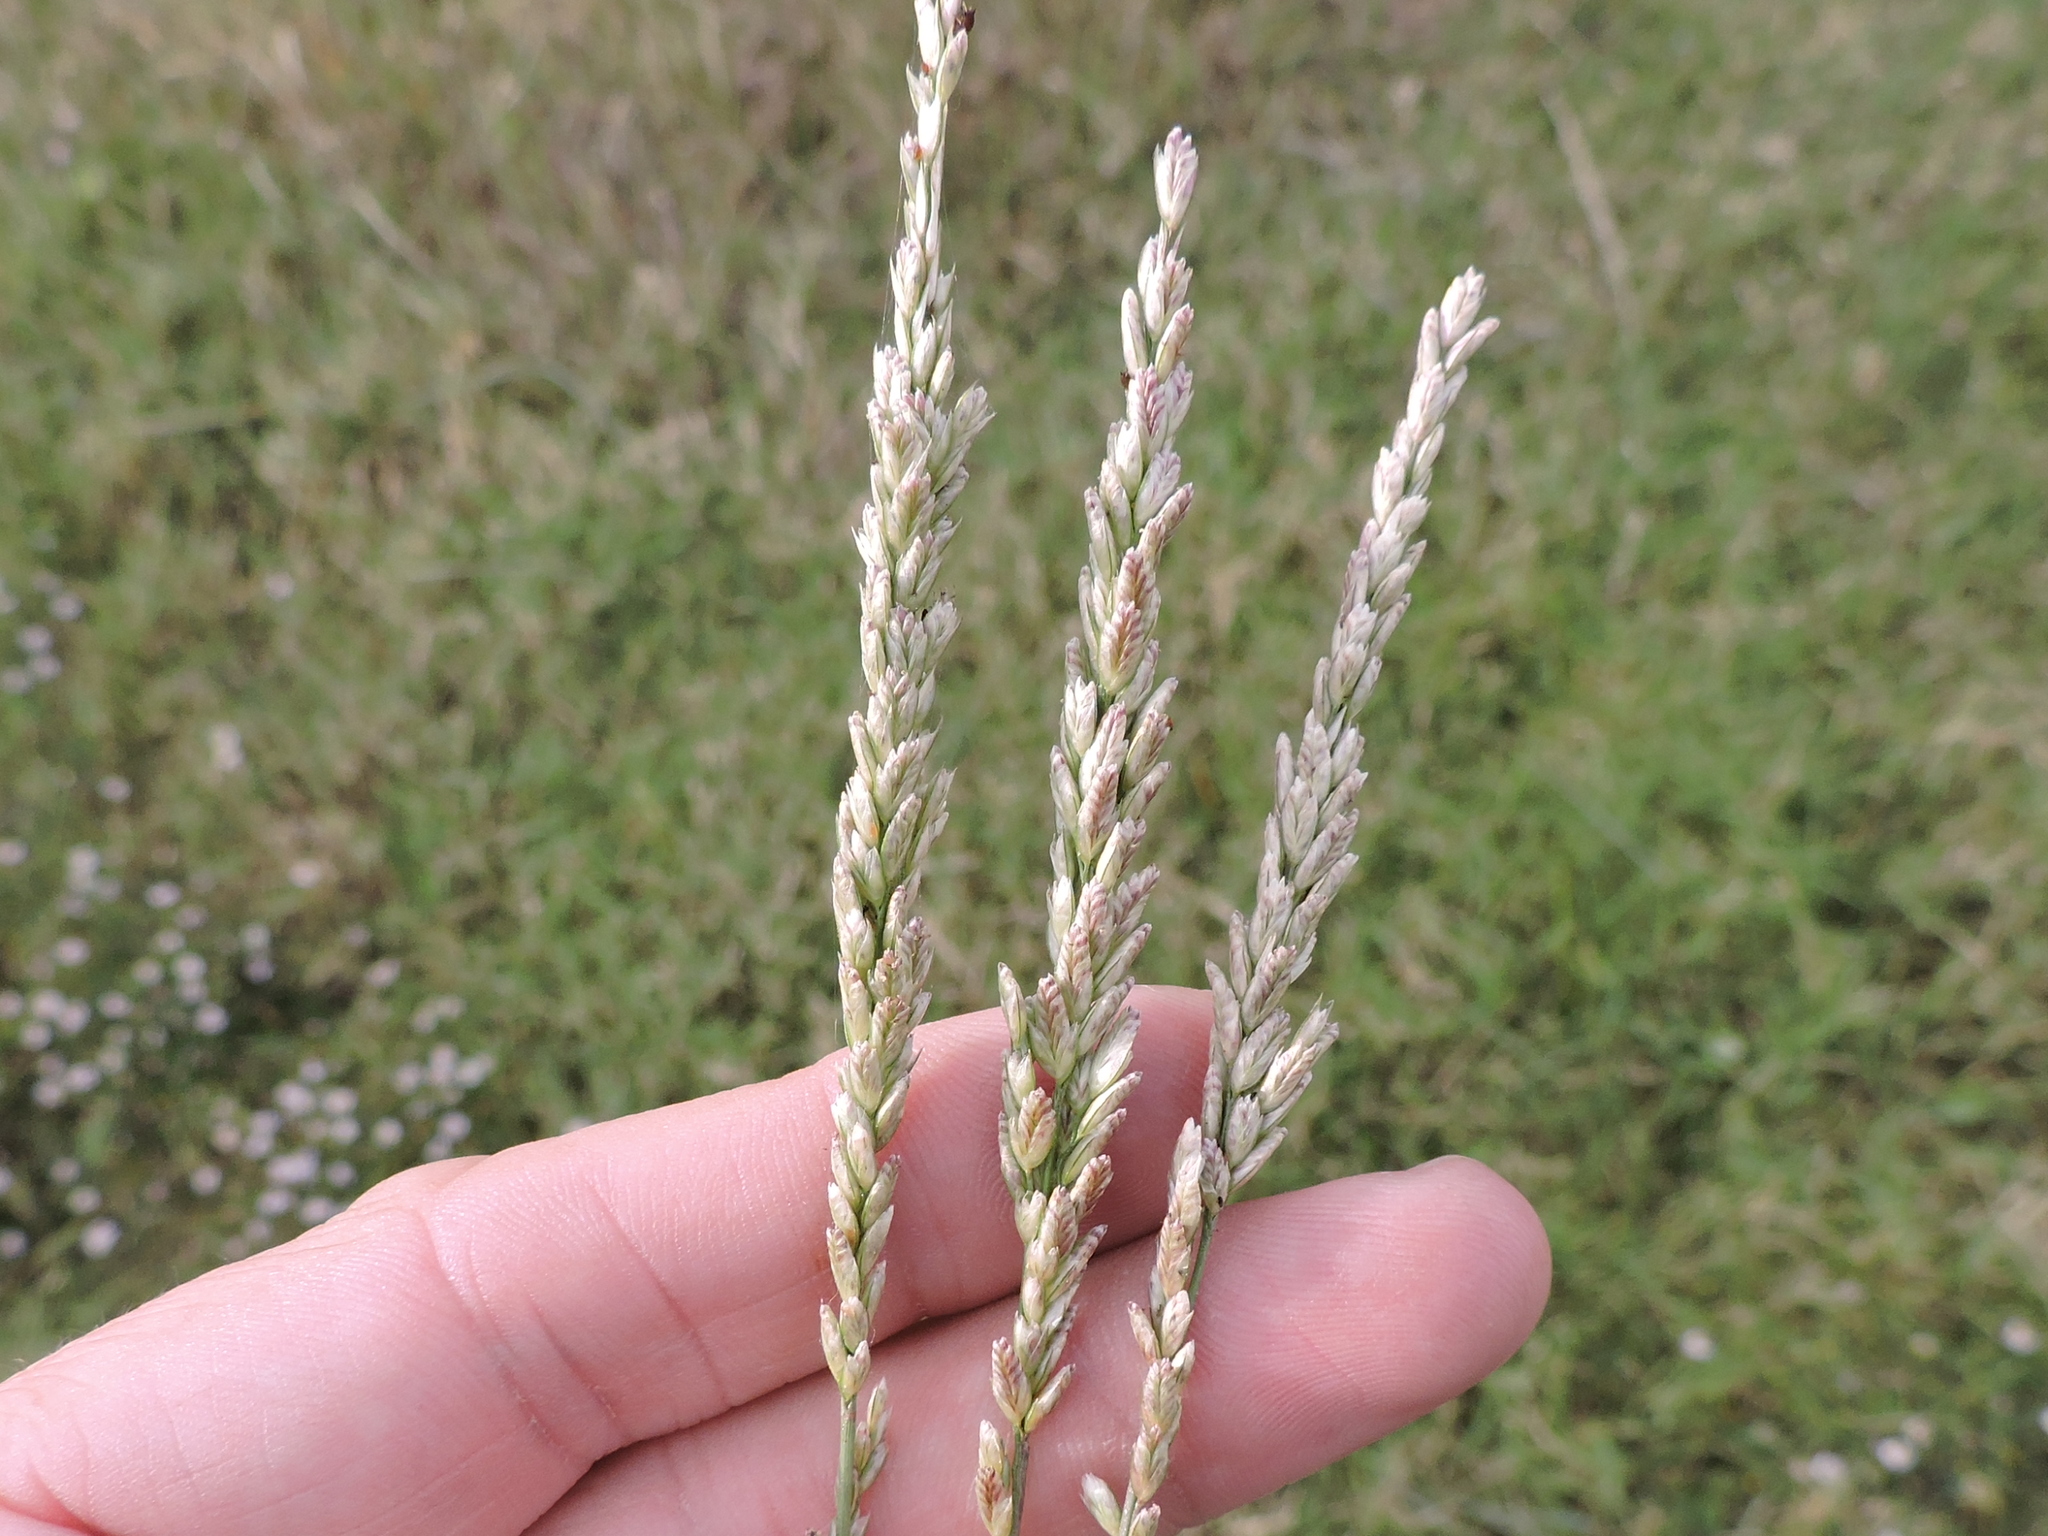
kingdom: Plantae
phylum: Tracheophyta
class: Liliopsida
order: Poales
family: Poaceae
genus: Tridens
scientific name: Tridens albescens
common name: White tridens
